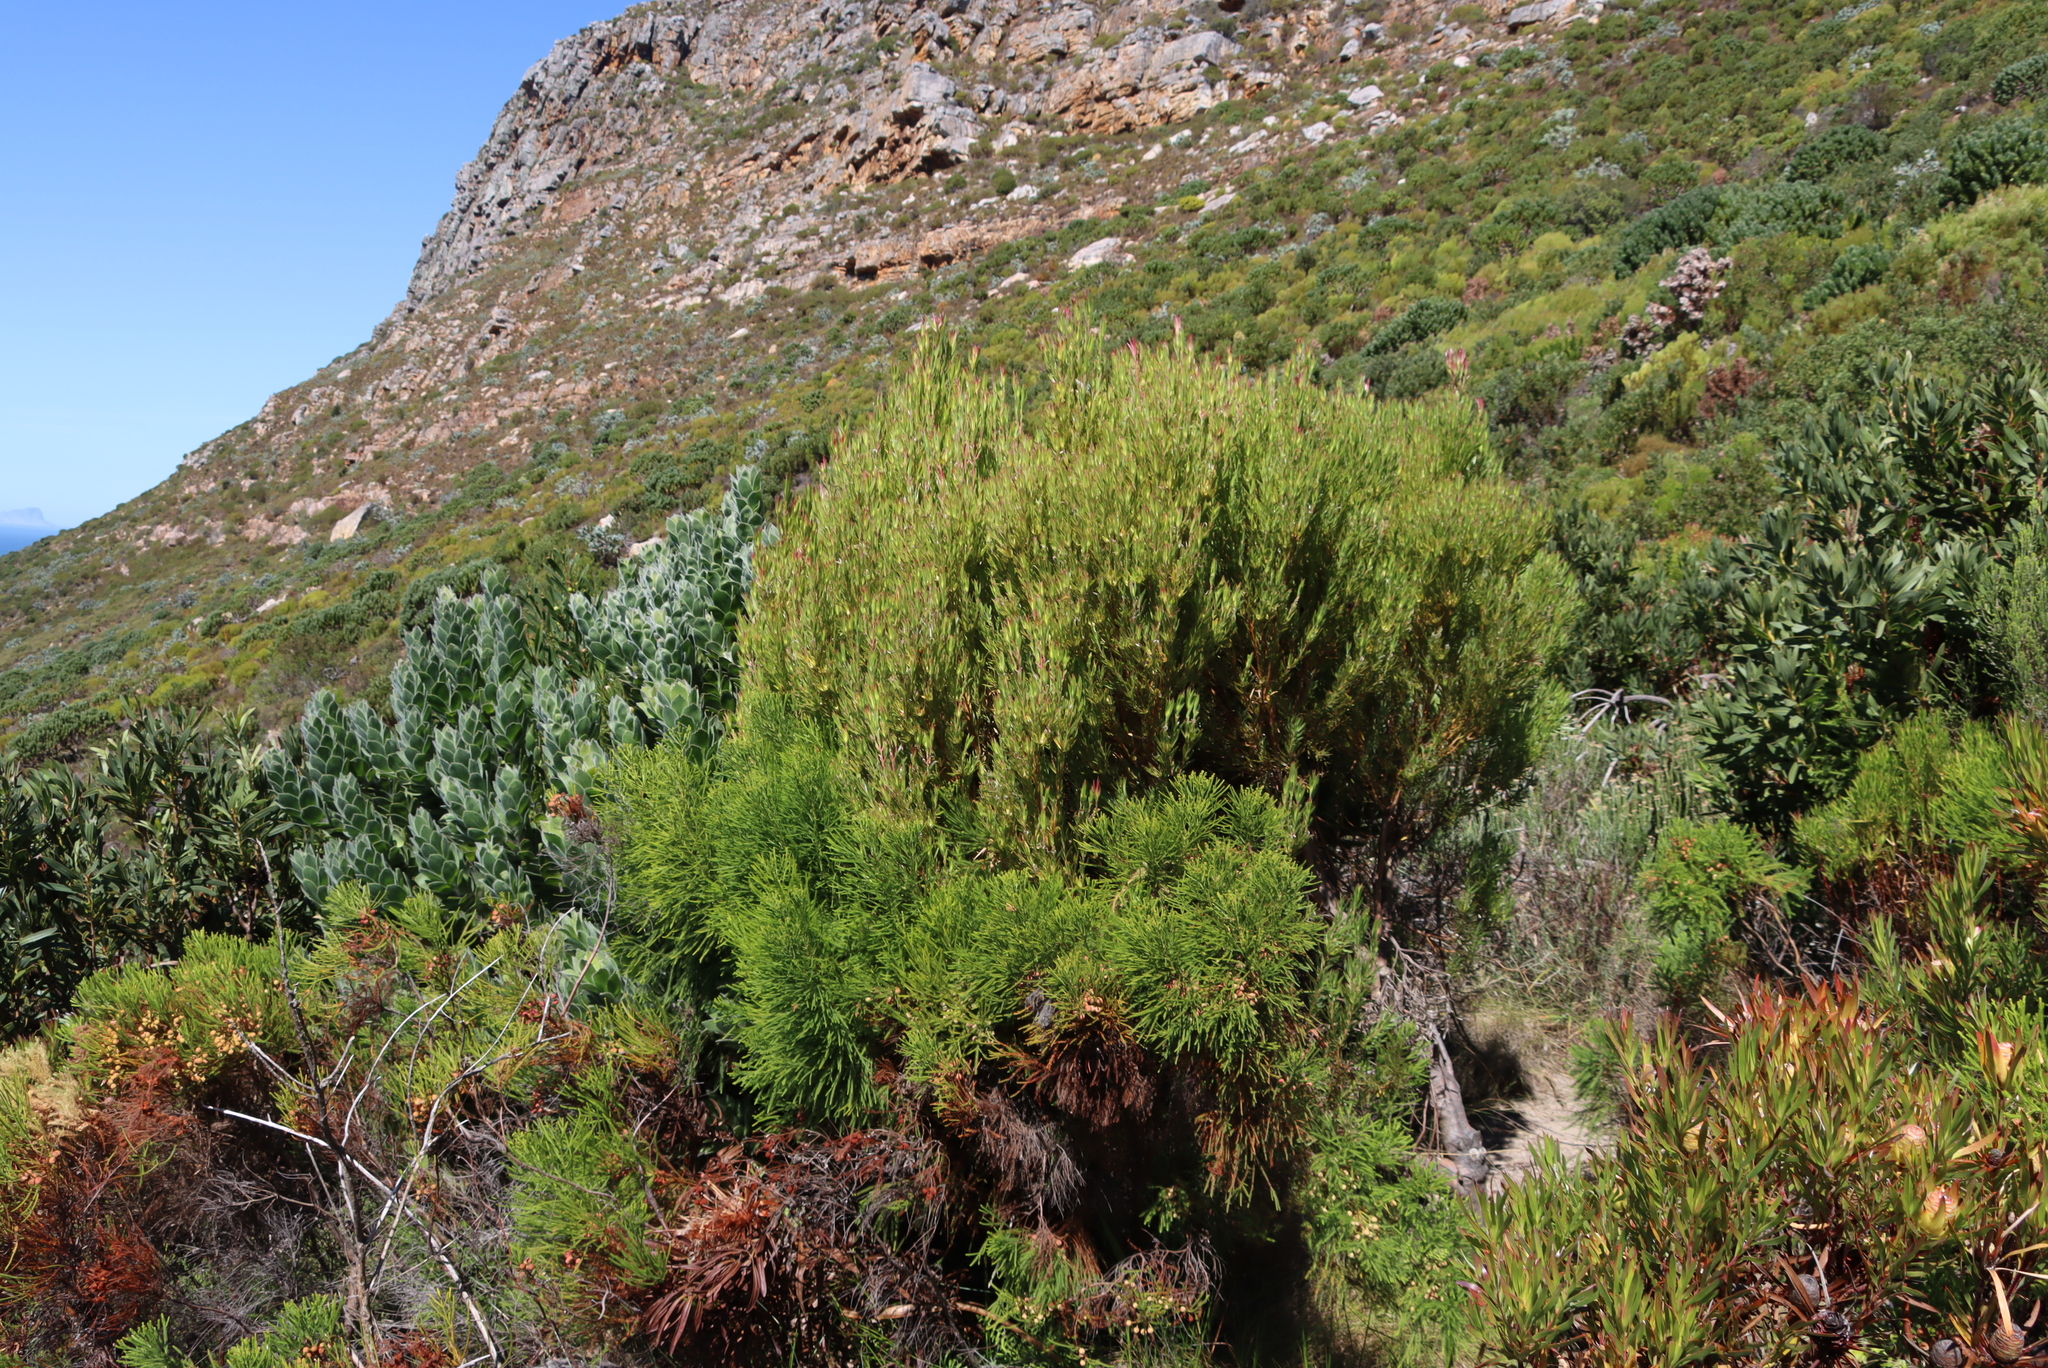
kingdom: Plantae
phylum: Tracheophyta
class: Magnoliopsida
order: Proteales
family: Proteaceae
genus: Leucadendron
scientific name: Leucadendron xanthoconus
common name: Sickle-leaf conebush
